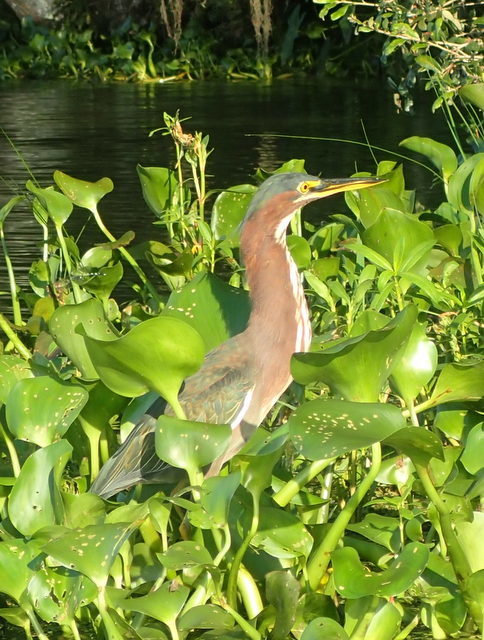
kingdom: Animalia
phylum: Chordata
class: Aves
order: Pelecaniformes
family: Ardeidae
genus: Butorides
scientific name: Butorides virescens
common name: Green heron
